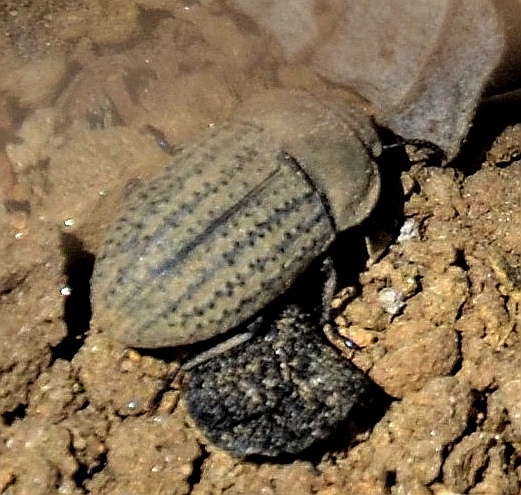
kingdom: Animalia
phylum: Arthropoda
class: Insecta
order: Coleoptera
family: Tenebrionidae
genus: Opatrum
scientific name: Opatrum sabulosum
